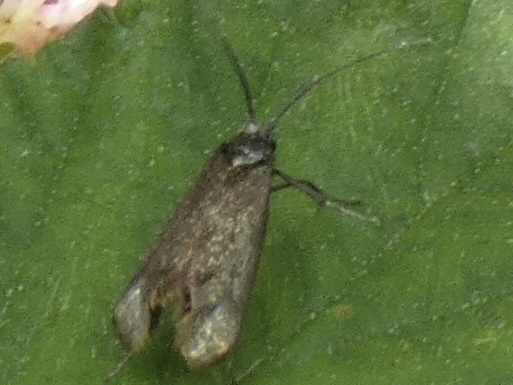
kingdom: Animalia
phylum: Arthropoda
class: Insecta
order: Lepidoptera
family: Adelidae
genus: Cauchas
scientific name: Cauchas rufimitrella
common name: Meadow long-horn
